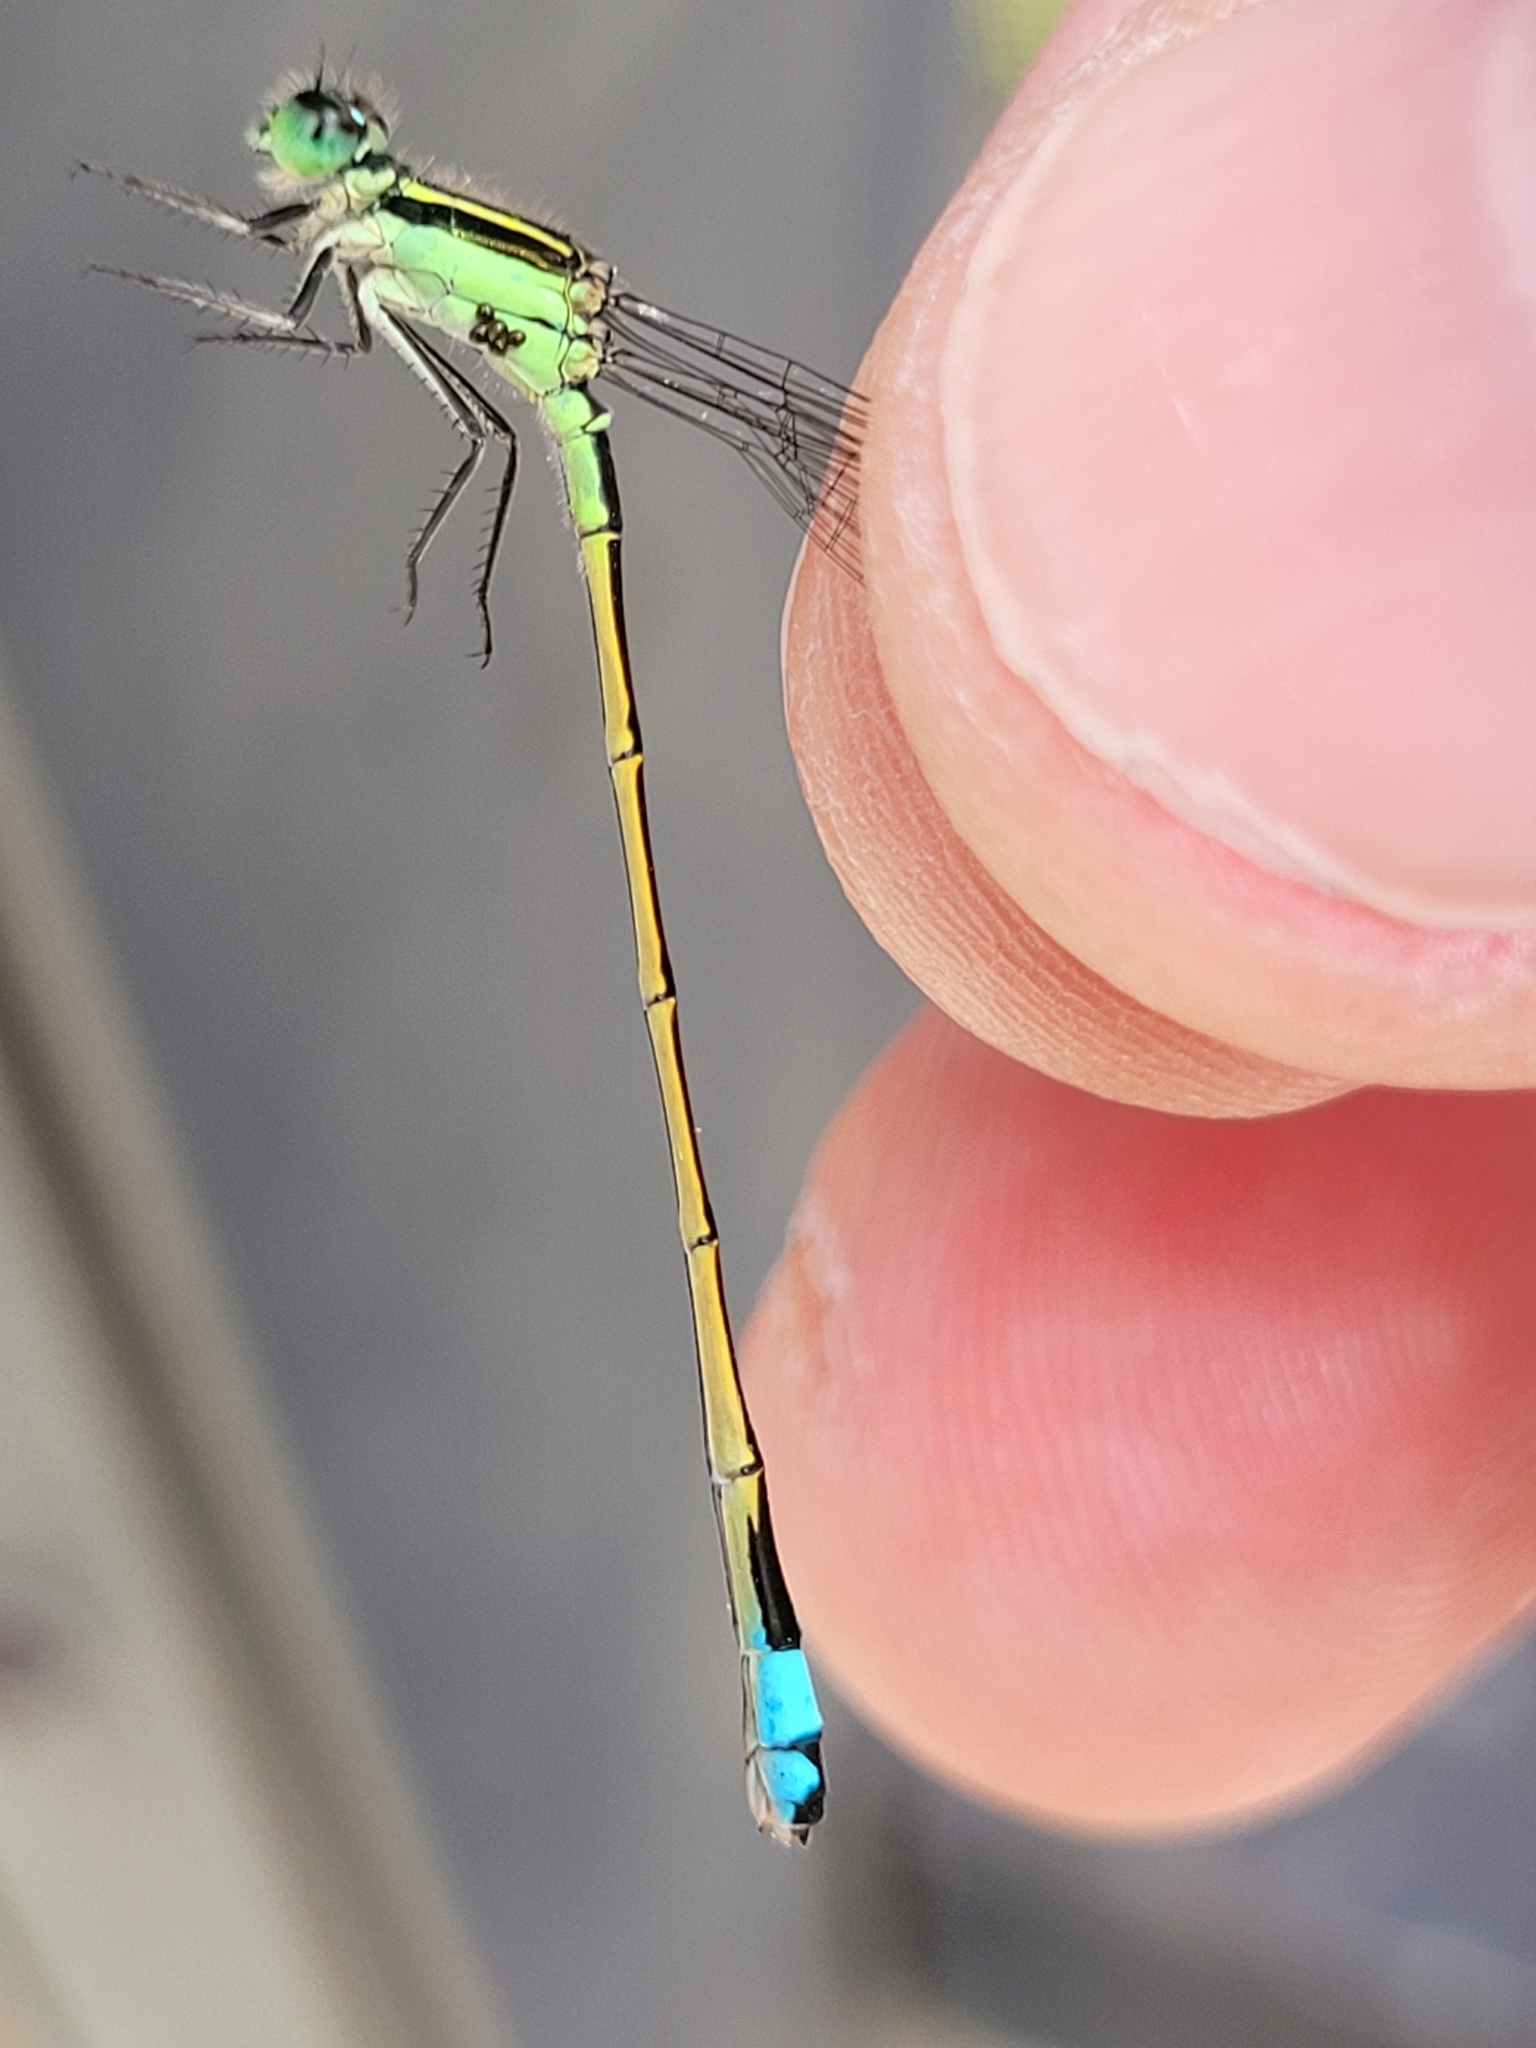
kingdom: Animalia
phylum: Arthropoda
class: Insecta
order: Odonata
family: Coenagrionidae
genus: Ischnura
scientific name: Ischnura ramburii
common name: Rambur's forktail
